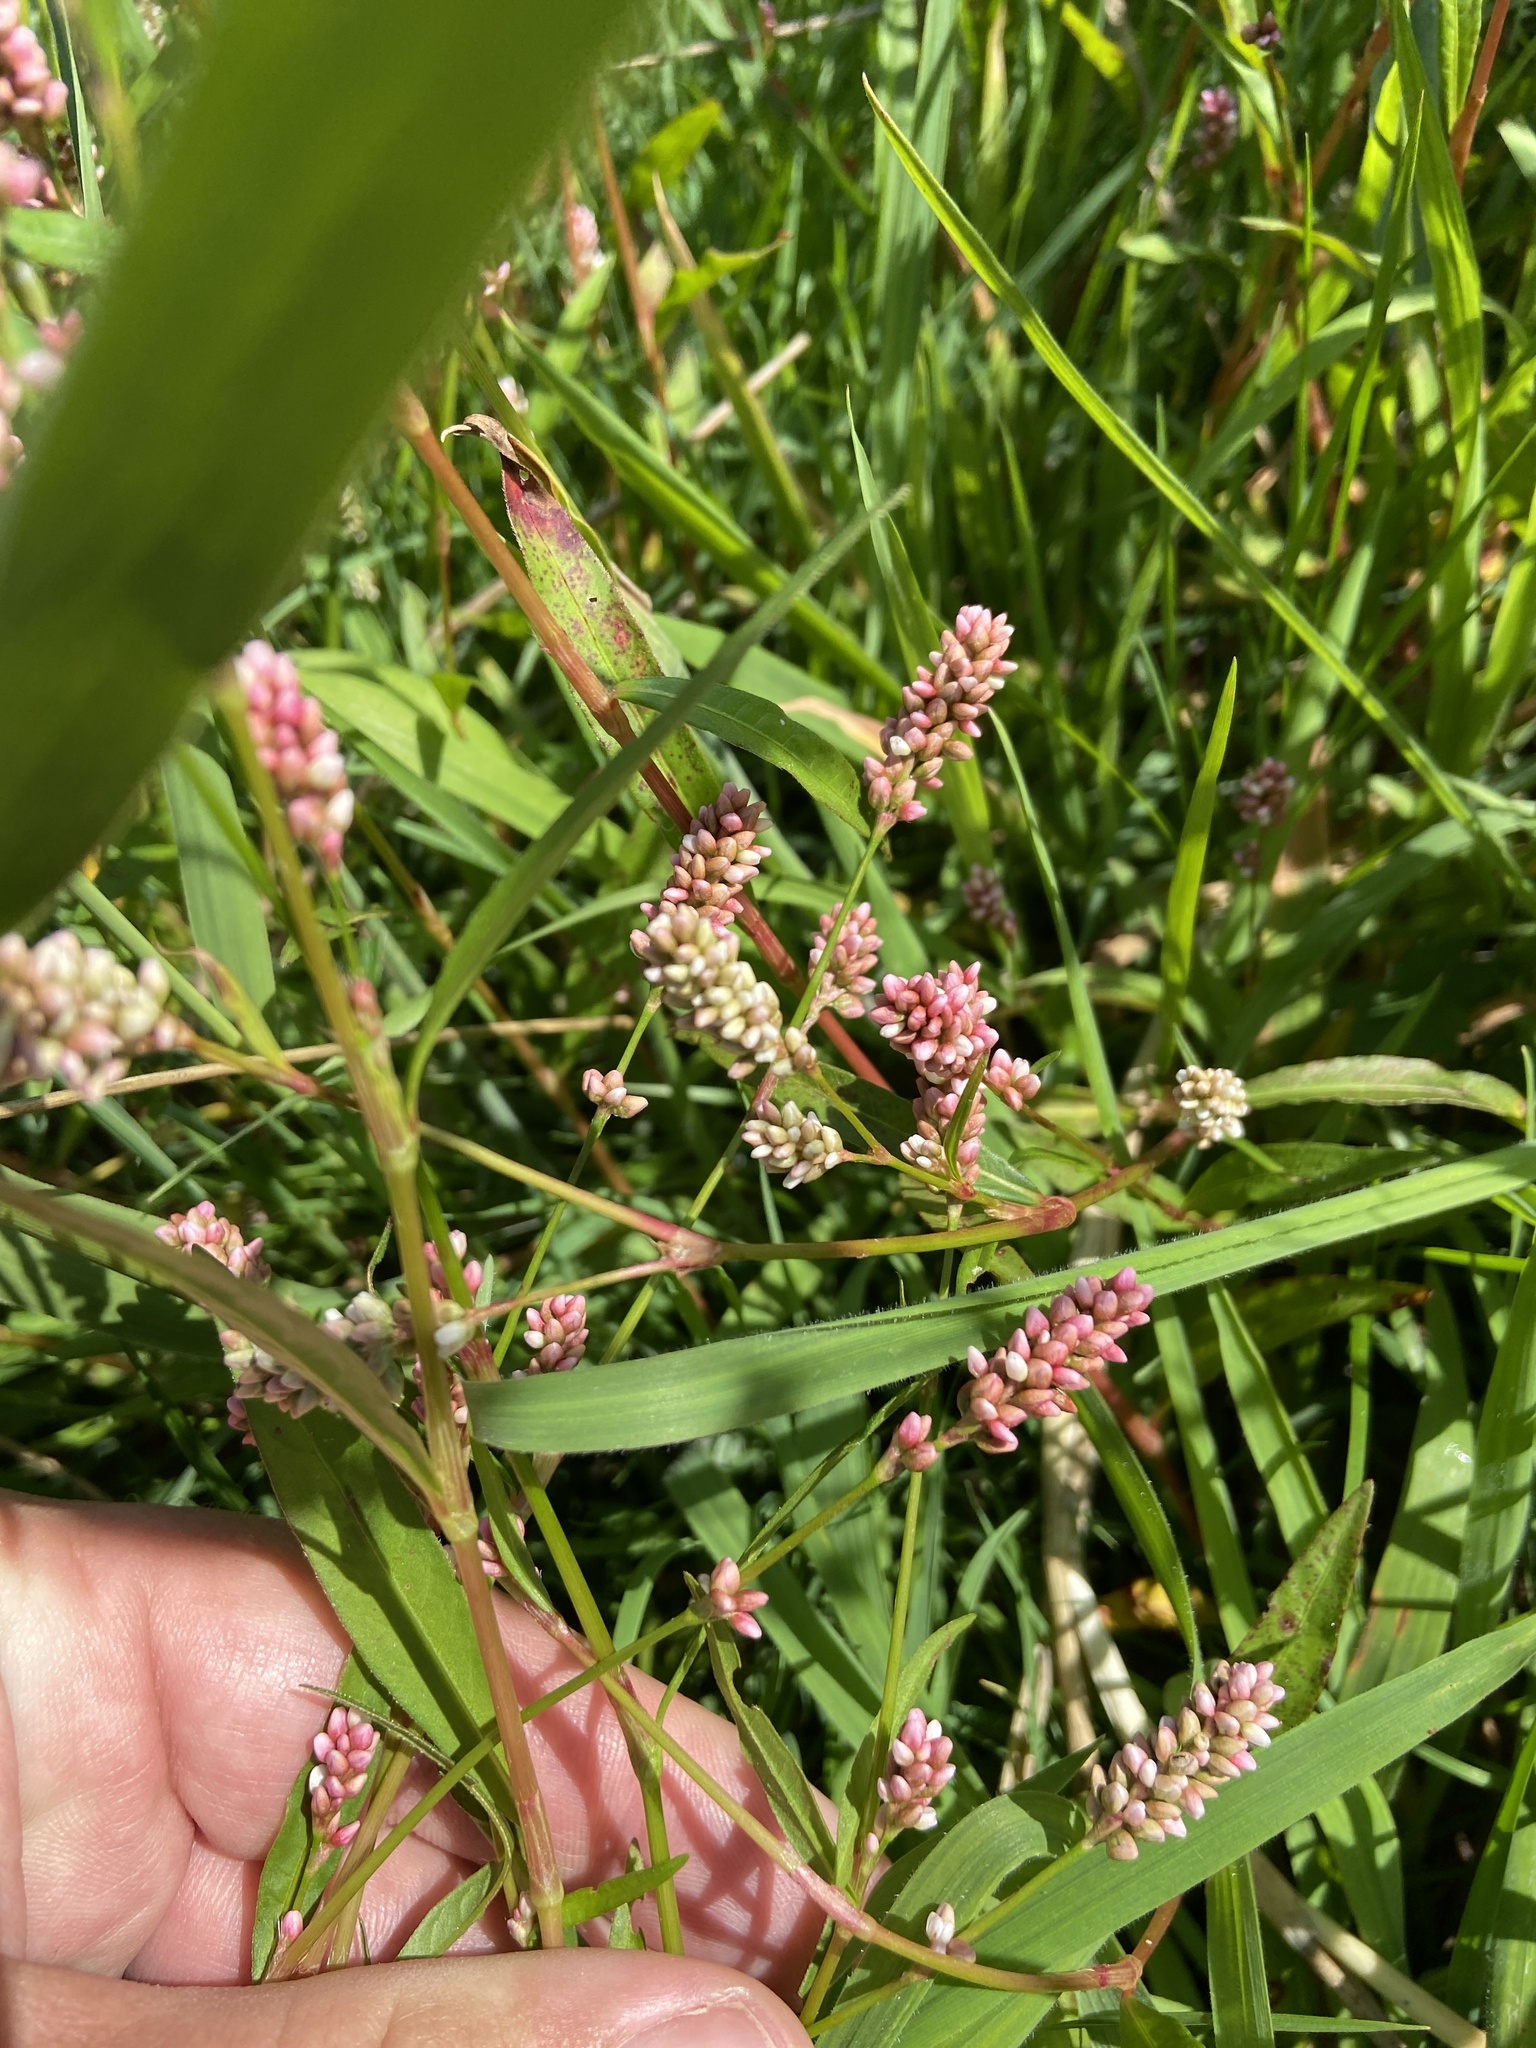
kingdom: Plantae
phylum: Tracheophyta
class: Magnoliopsida
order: Caryophyllales
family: Polygonaceae
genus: Persicaria
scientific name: Persicaria maculosa
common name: Redshank
